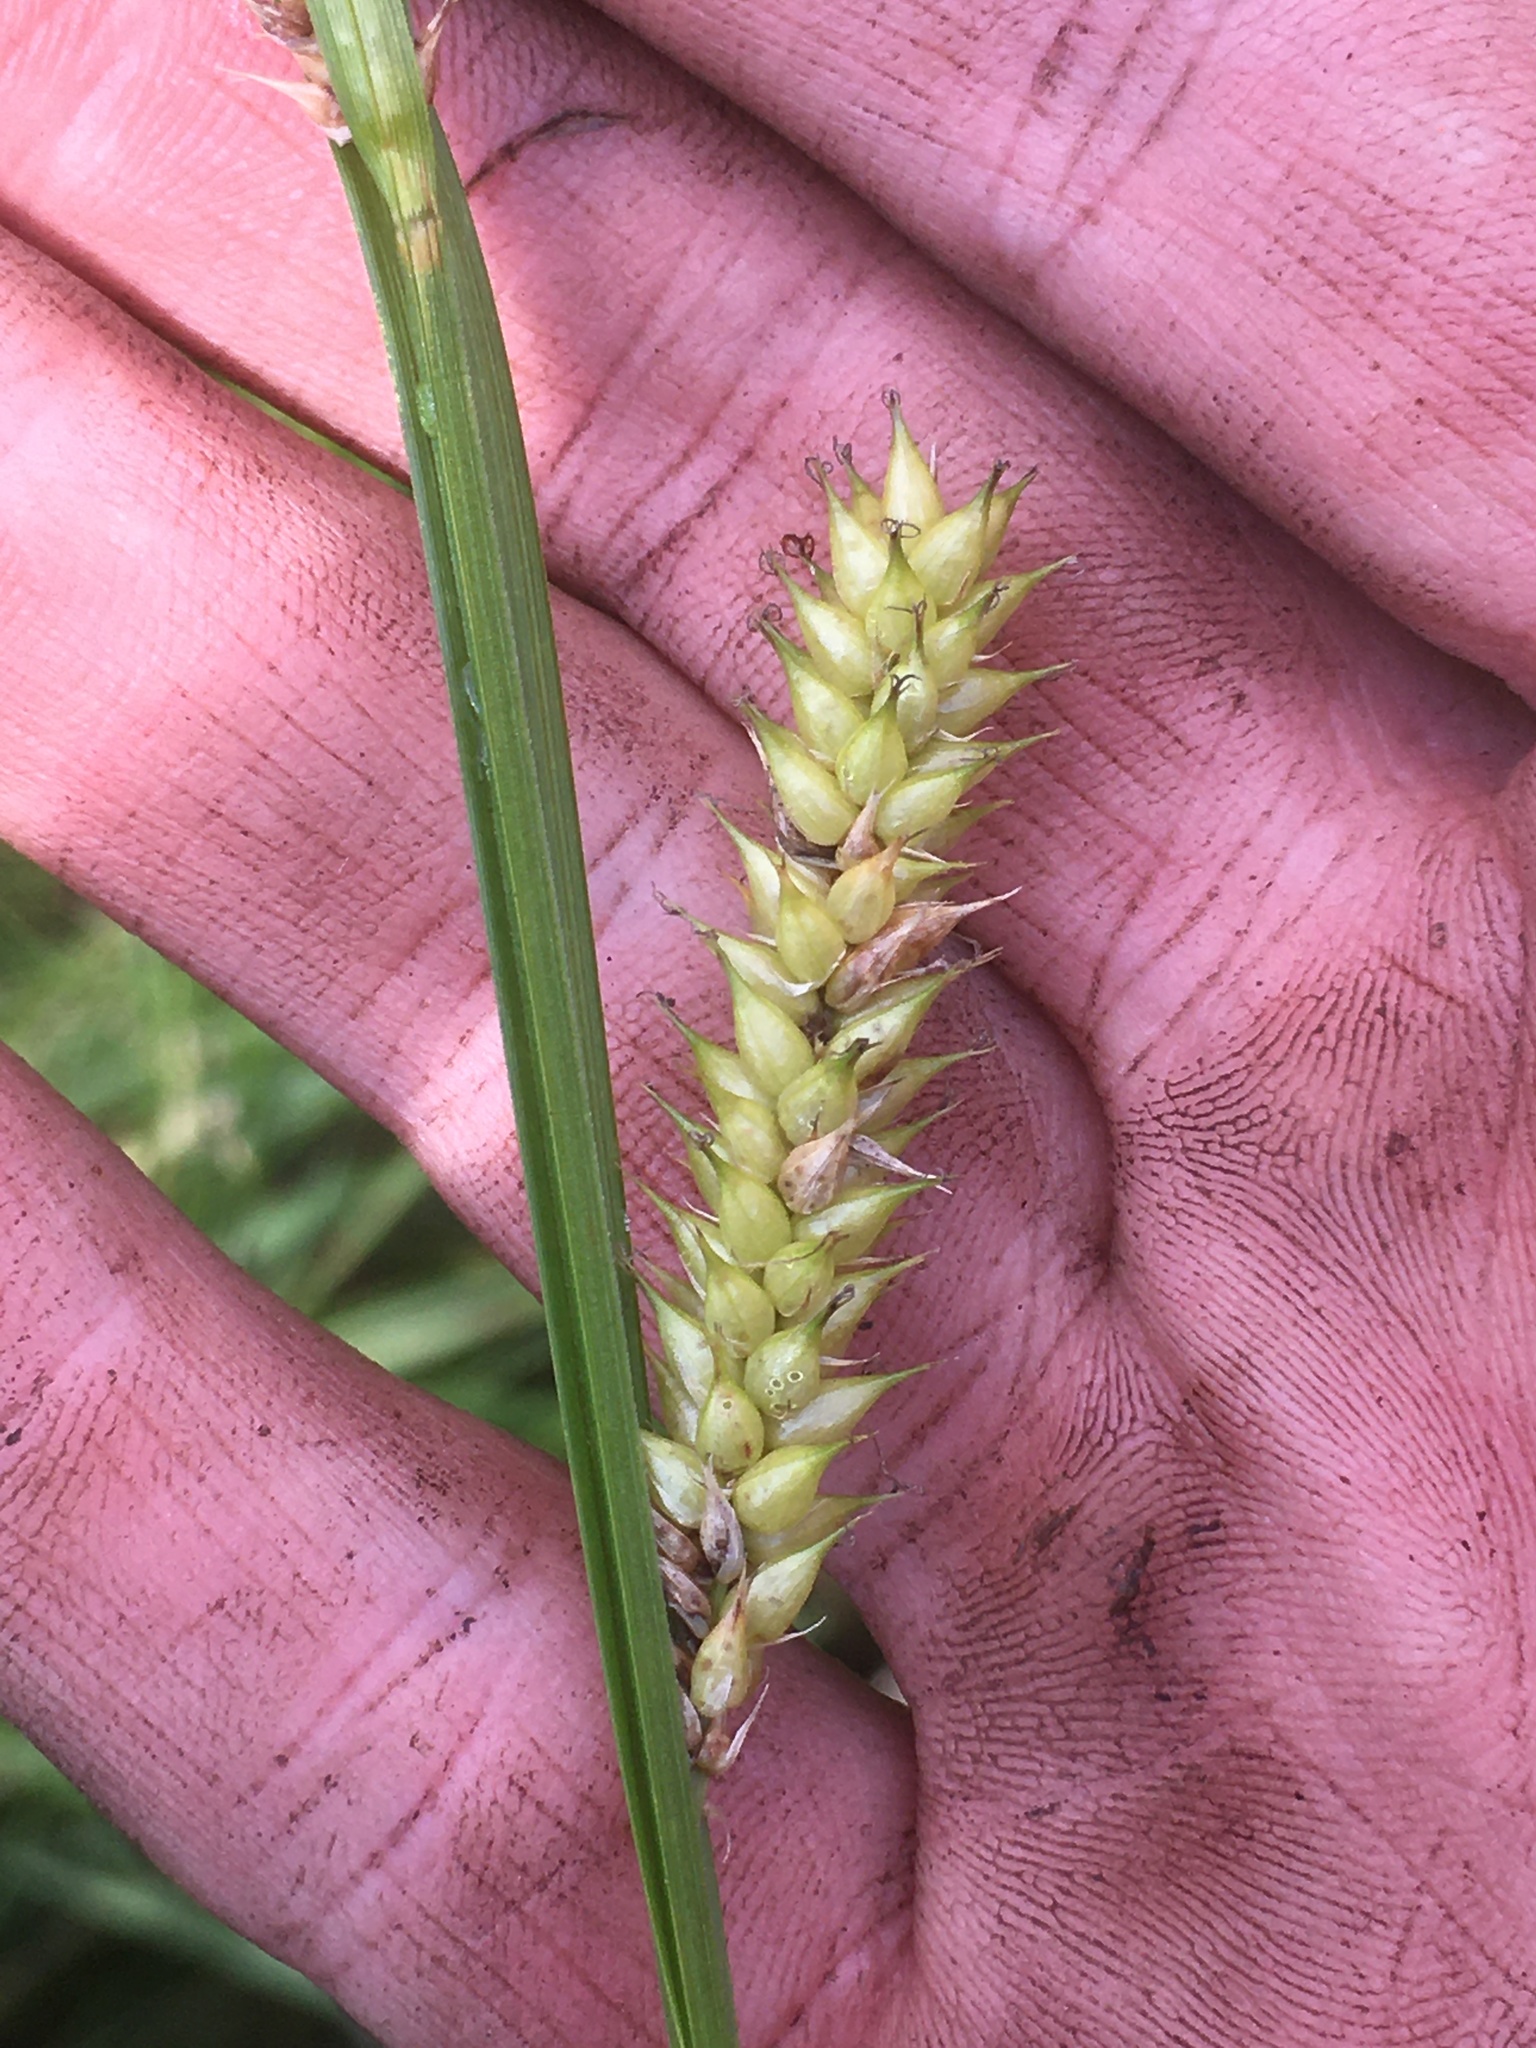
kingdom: Plantae
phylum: Tracheophyta
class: Liliopsida
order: Poales
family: Cyperaceae
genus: Carex
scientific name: Carex vesicaria
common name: Bladder-sedge
